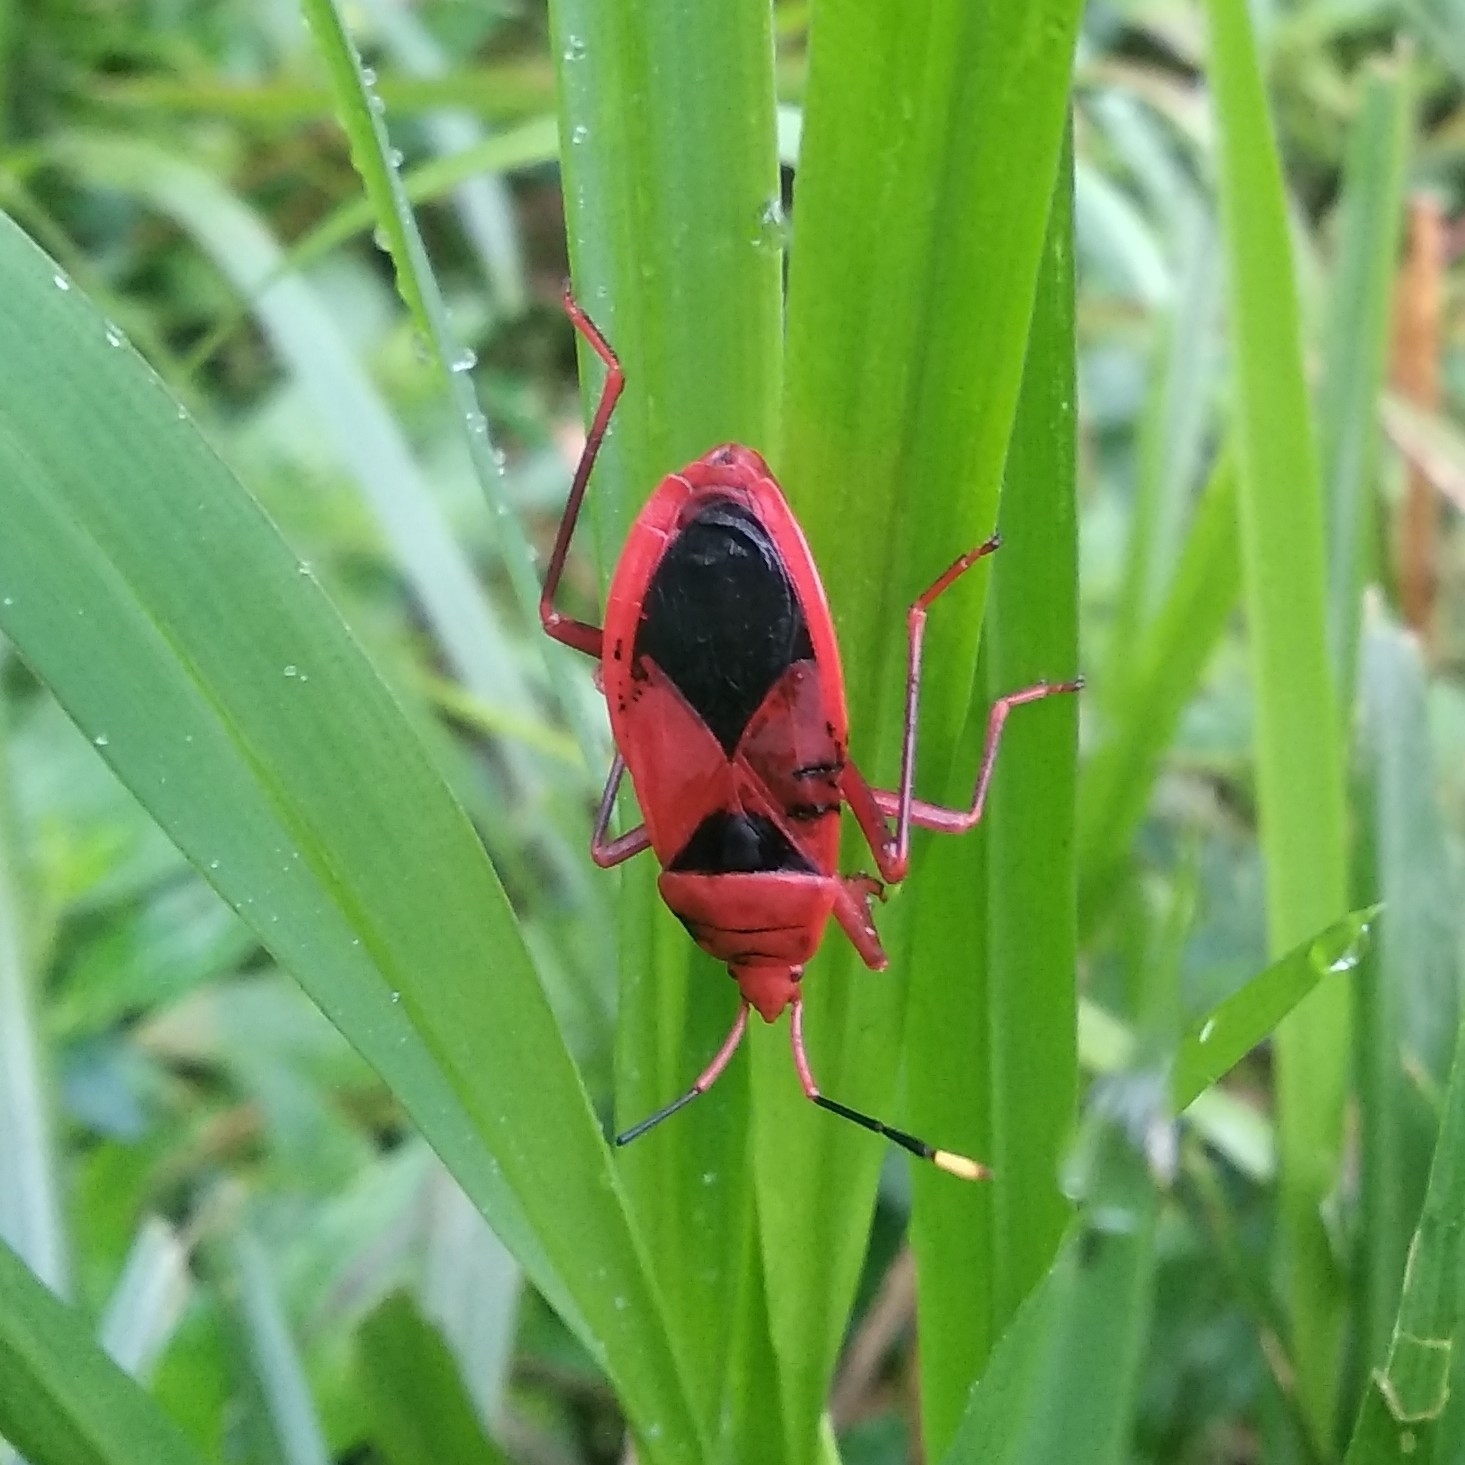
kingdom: Animalia
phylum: Arthropoda
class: Insecta
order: Hemiptera
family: Pyrrhocoridae
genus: Probergrothius
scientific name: Probergrothius
